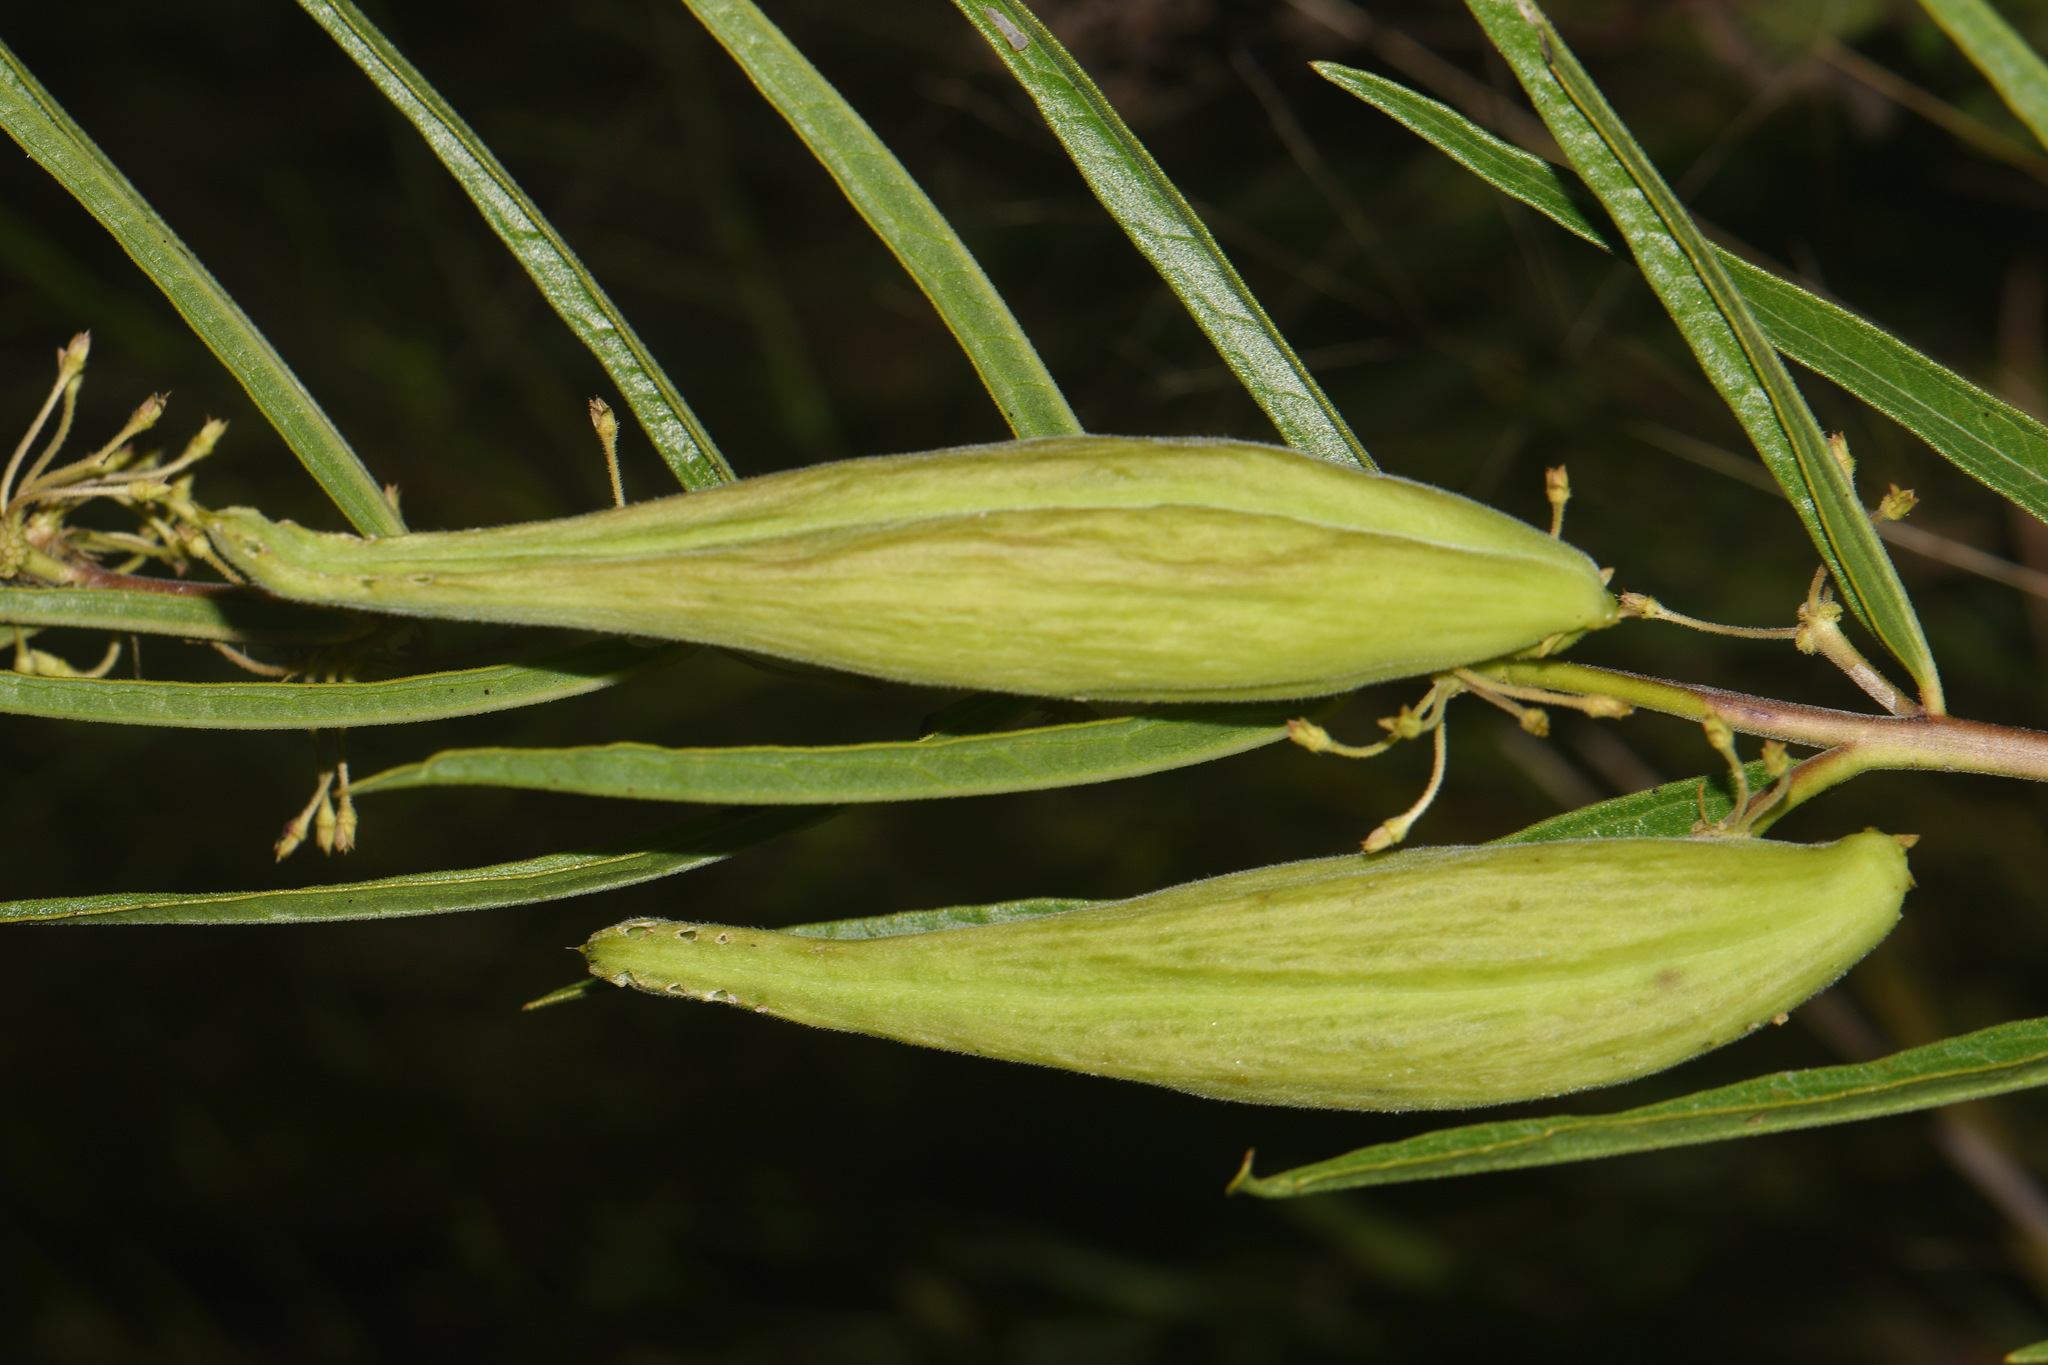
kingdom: Plantae
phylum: Tracheophyta
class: Magnoliopsida
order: Gentianales
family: Apocynaceae
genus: Asclepias
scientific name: Asclepias hirtella
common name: Prairie milkweed
